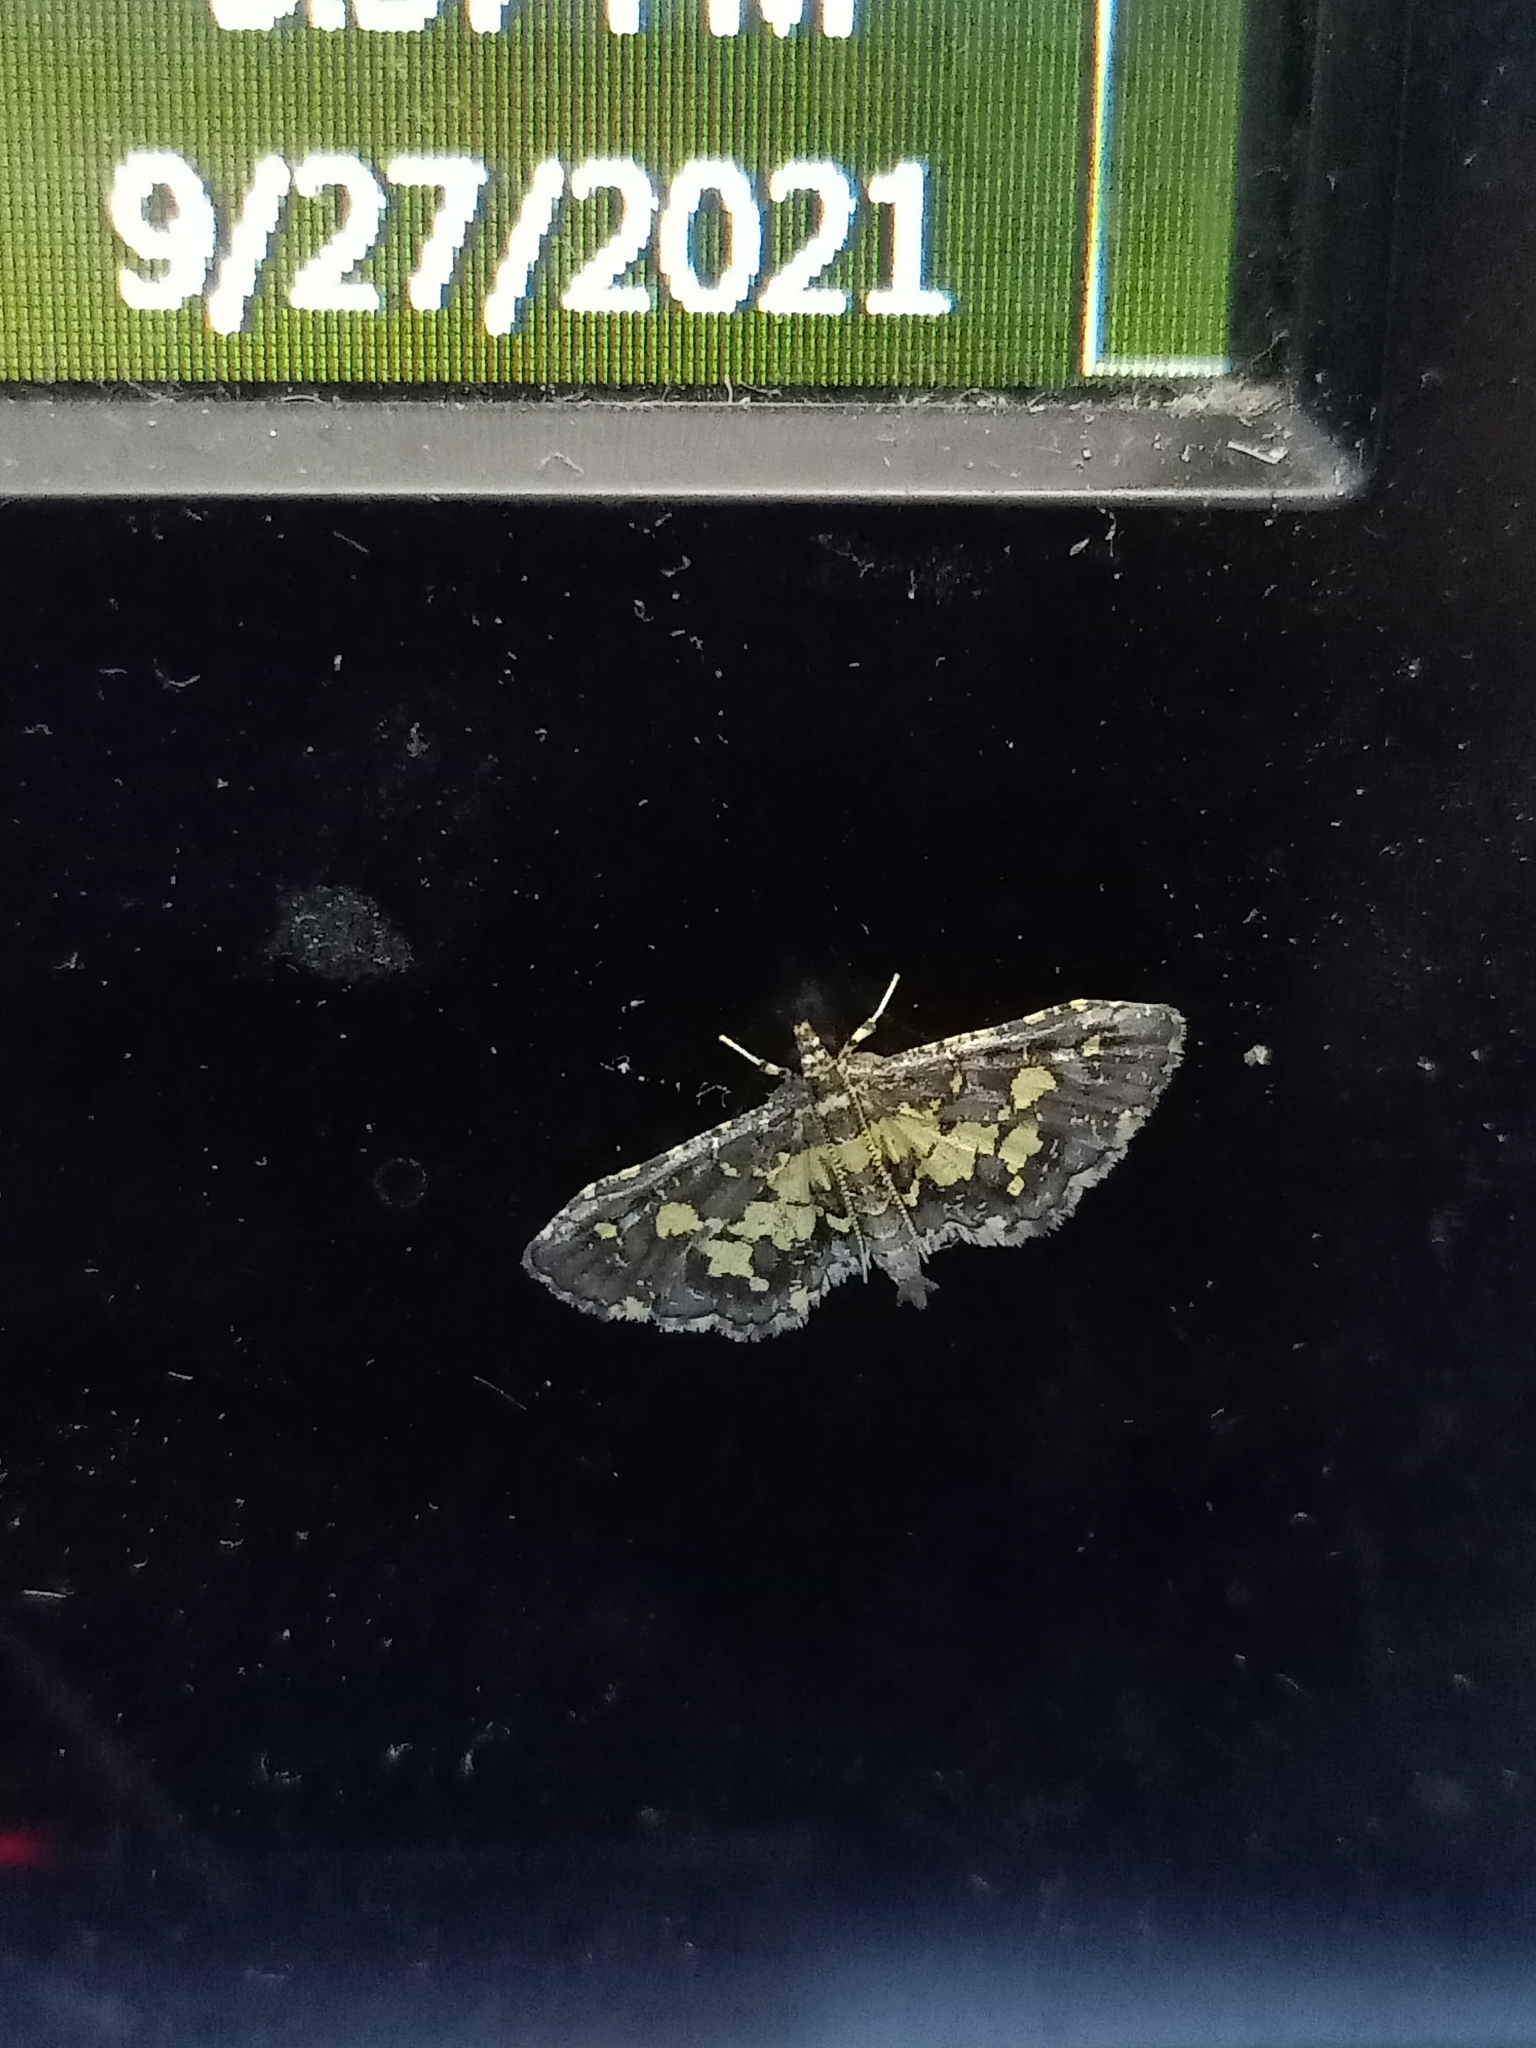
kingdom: Animalia
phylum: Arthropoda
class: Insecta
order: Lepidoptera
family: Crambidae
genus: Eurrhyparodes
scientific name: Eurrhyparodes bracteolalis
